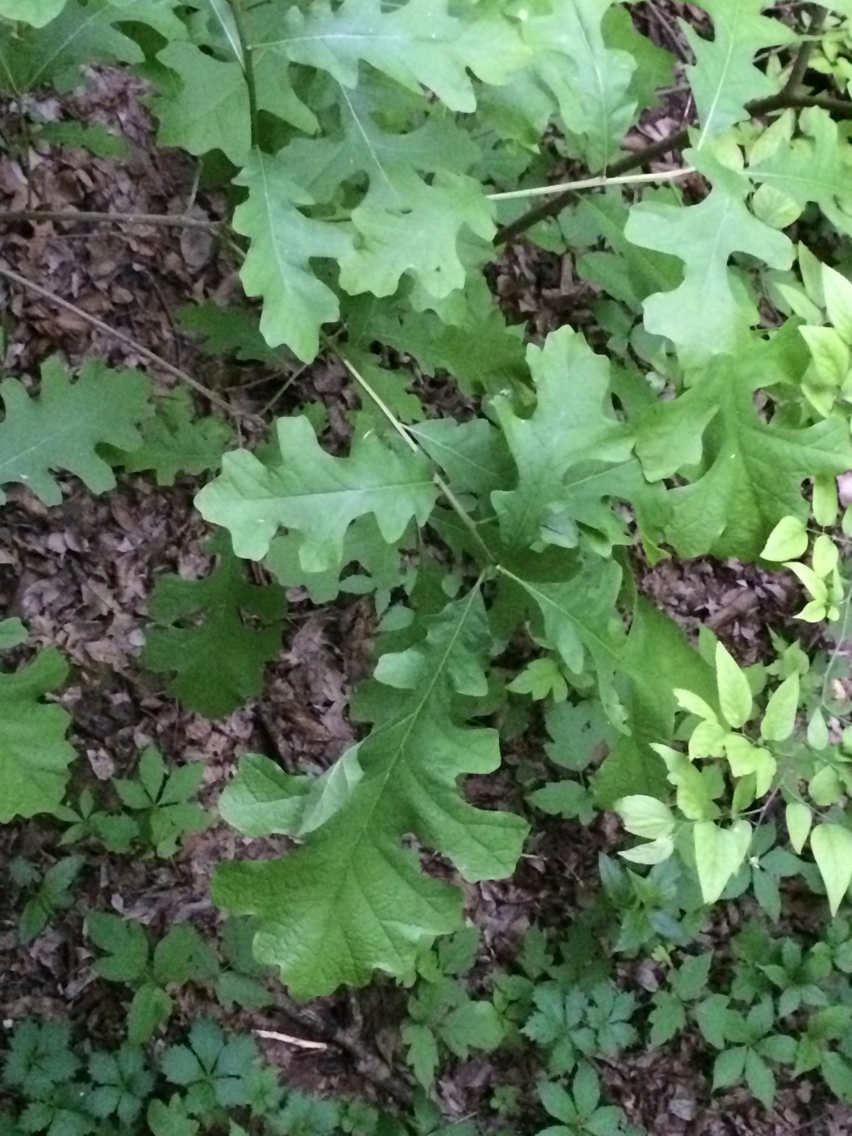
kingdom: Plantae
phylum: Tracheophyta
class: Magnoliopsida
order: Fagales
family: Fagaceae
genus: Quercus
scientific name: Quercus macrocarpa
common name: Bur oak
